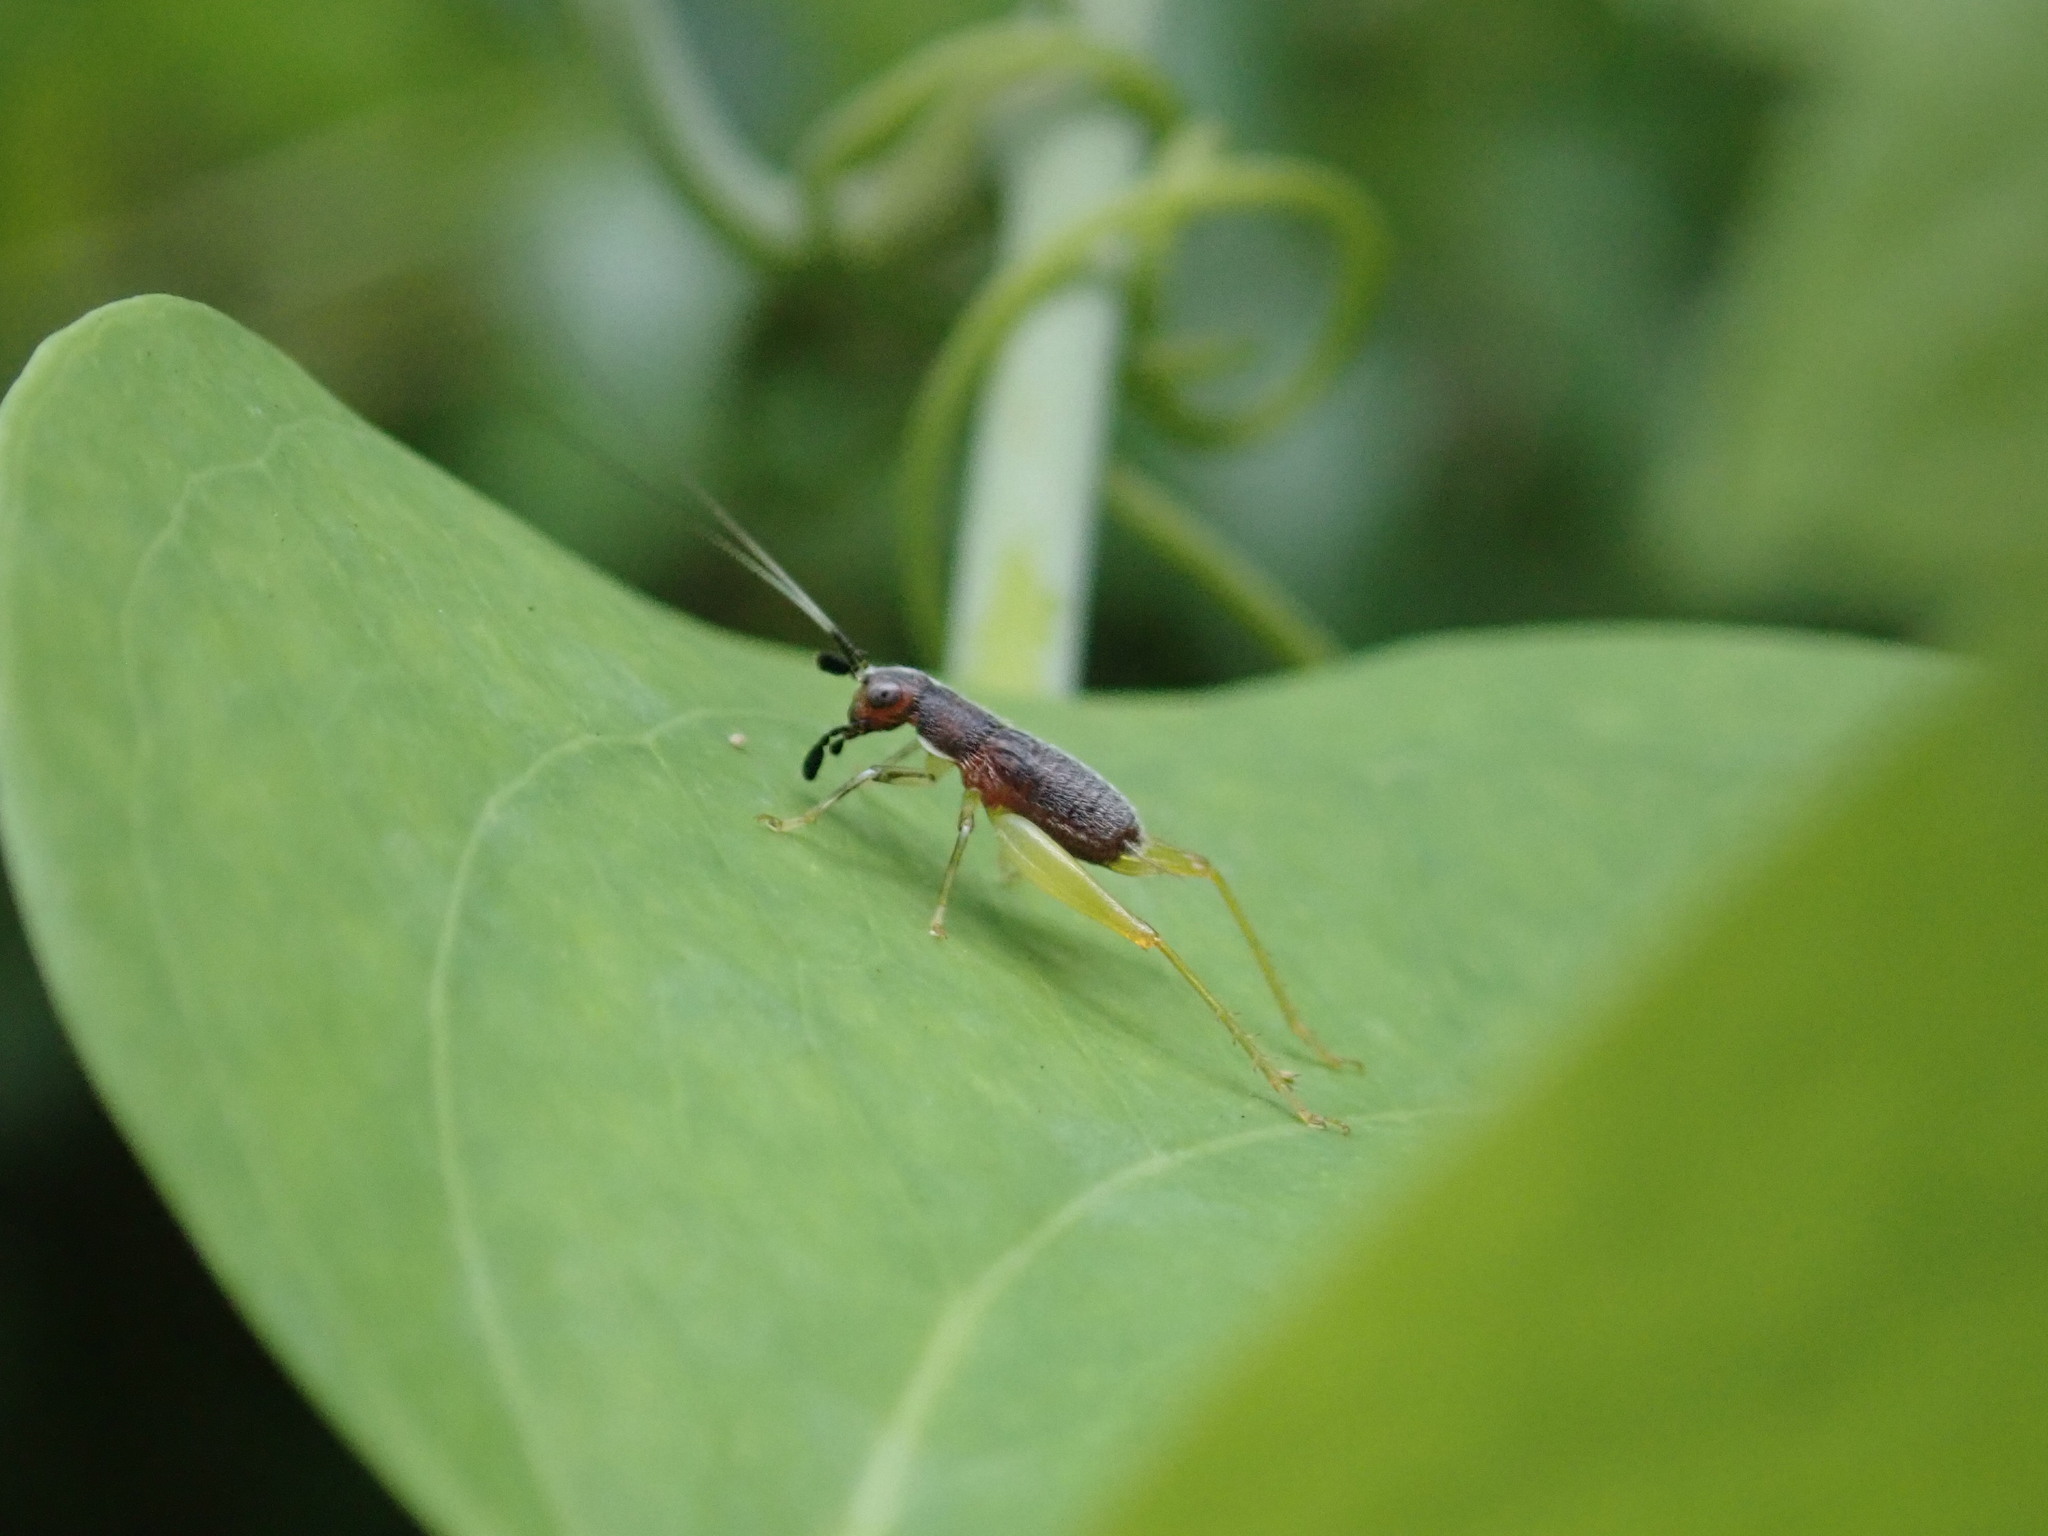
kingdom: Animalia
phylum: Arthropoda
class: Insecta
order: Orthoptera
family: Trigonidiidae
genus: Phyllopalpus
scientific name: Phyllopalpus pulchellus
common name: Handsome trig
